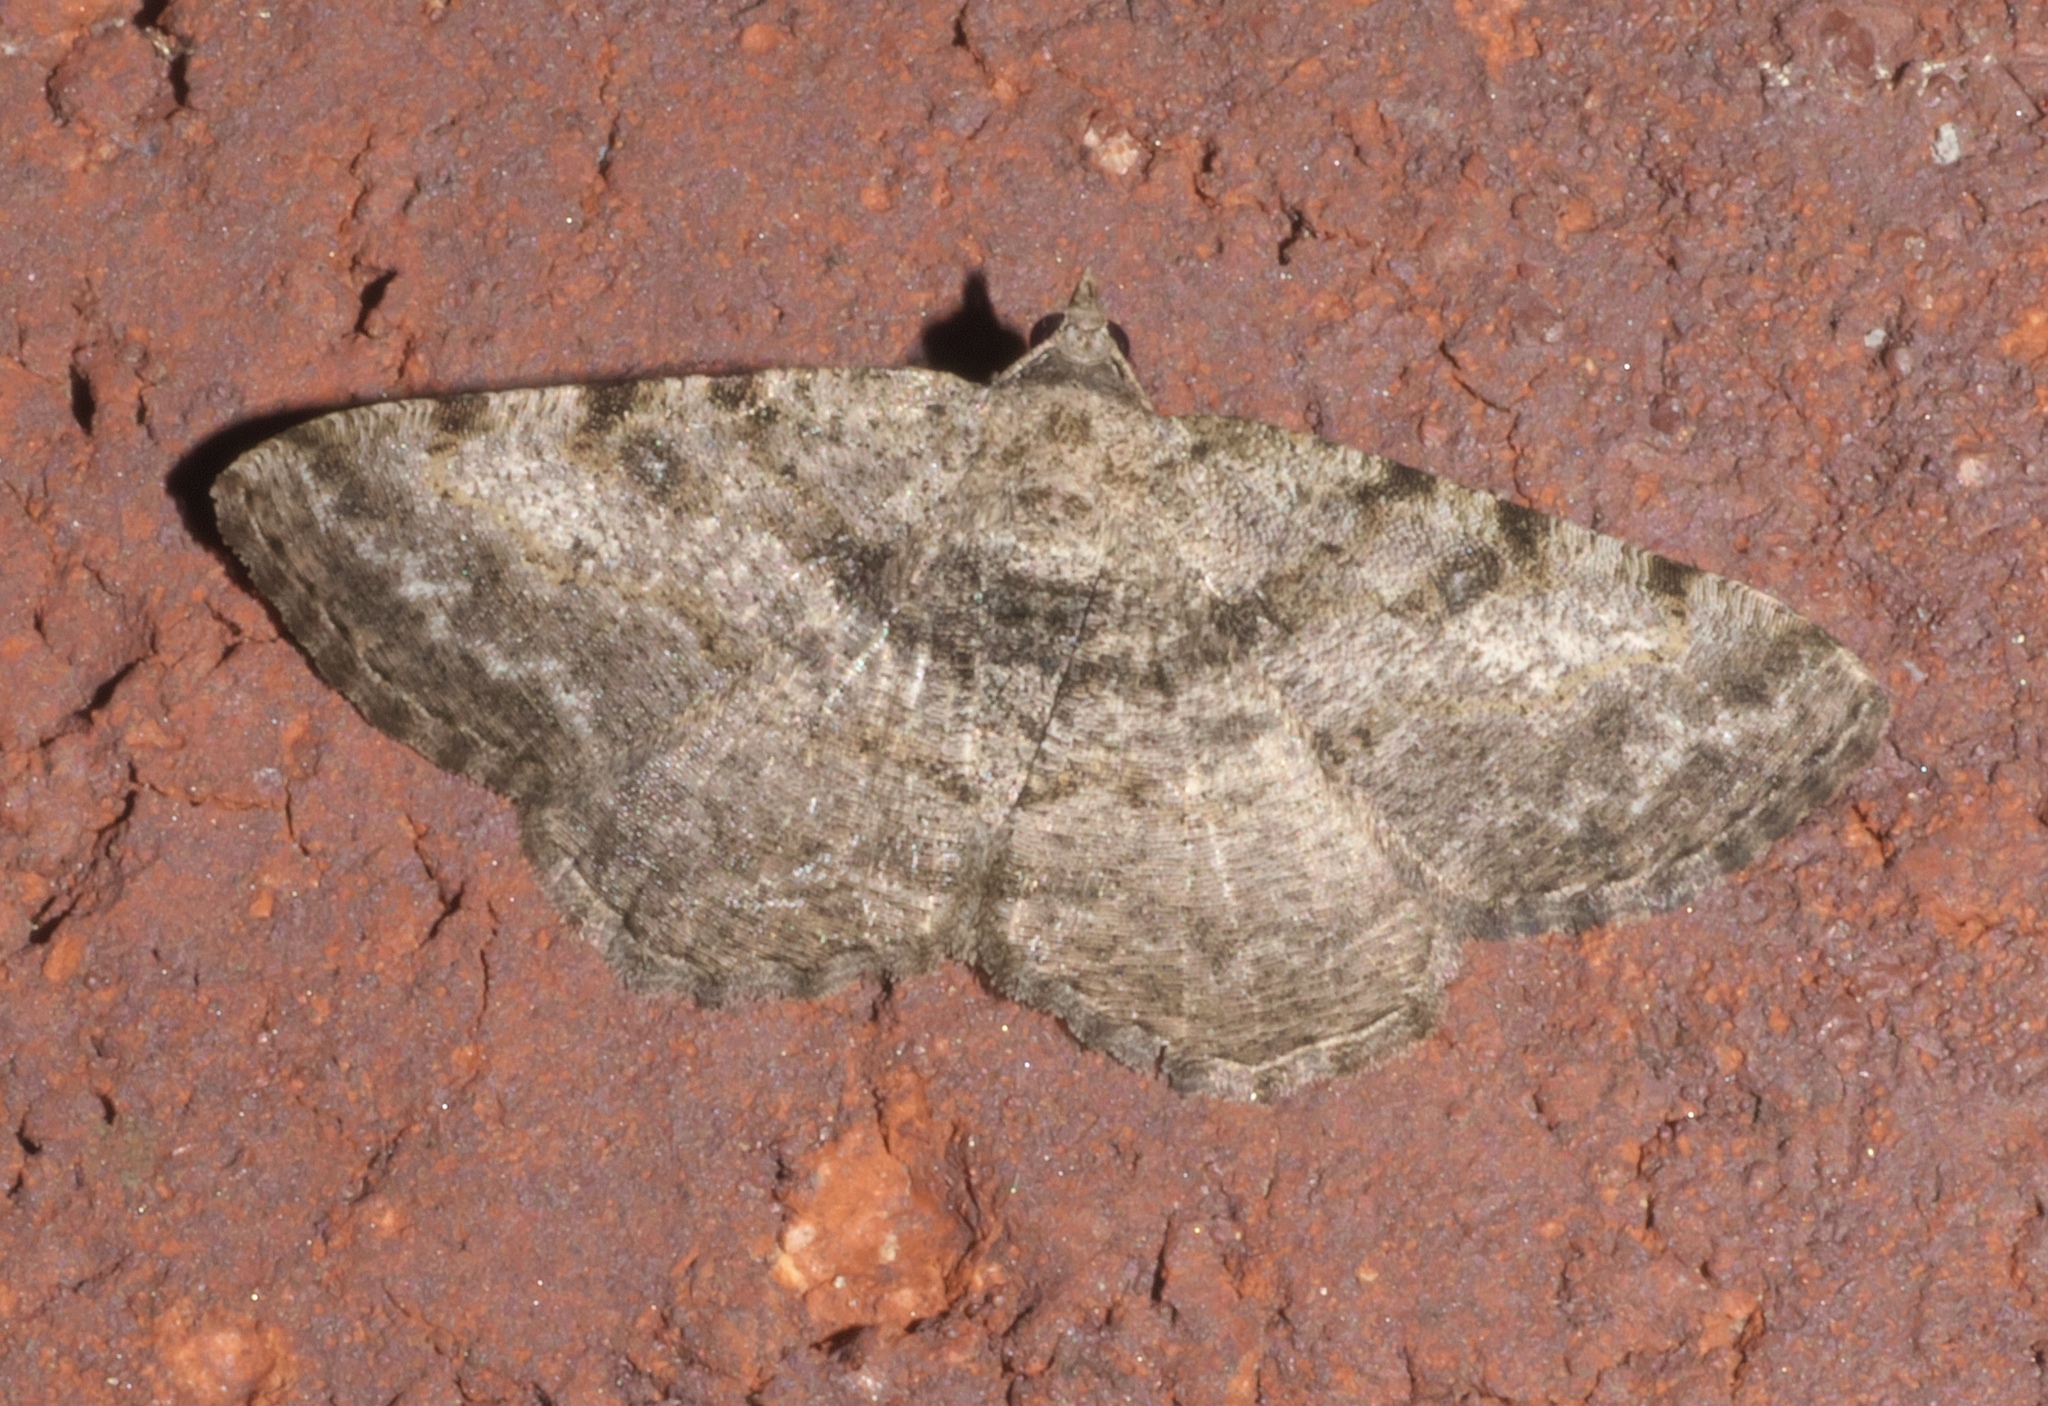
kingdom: Animalia
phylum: Arthropoda
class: Insecta
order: Lepidoptera
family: Geometridae
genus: Digrammia
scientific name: Digrammia gnophosaria
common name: Hollow-spotted angle
